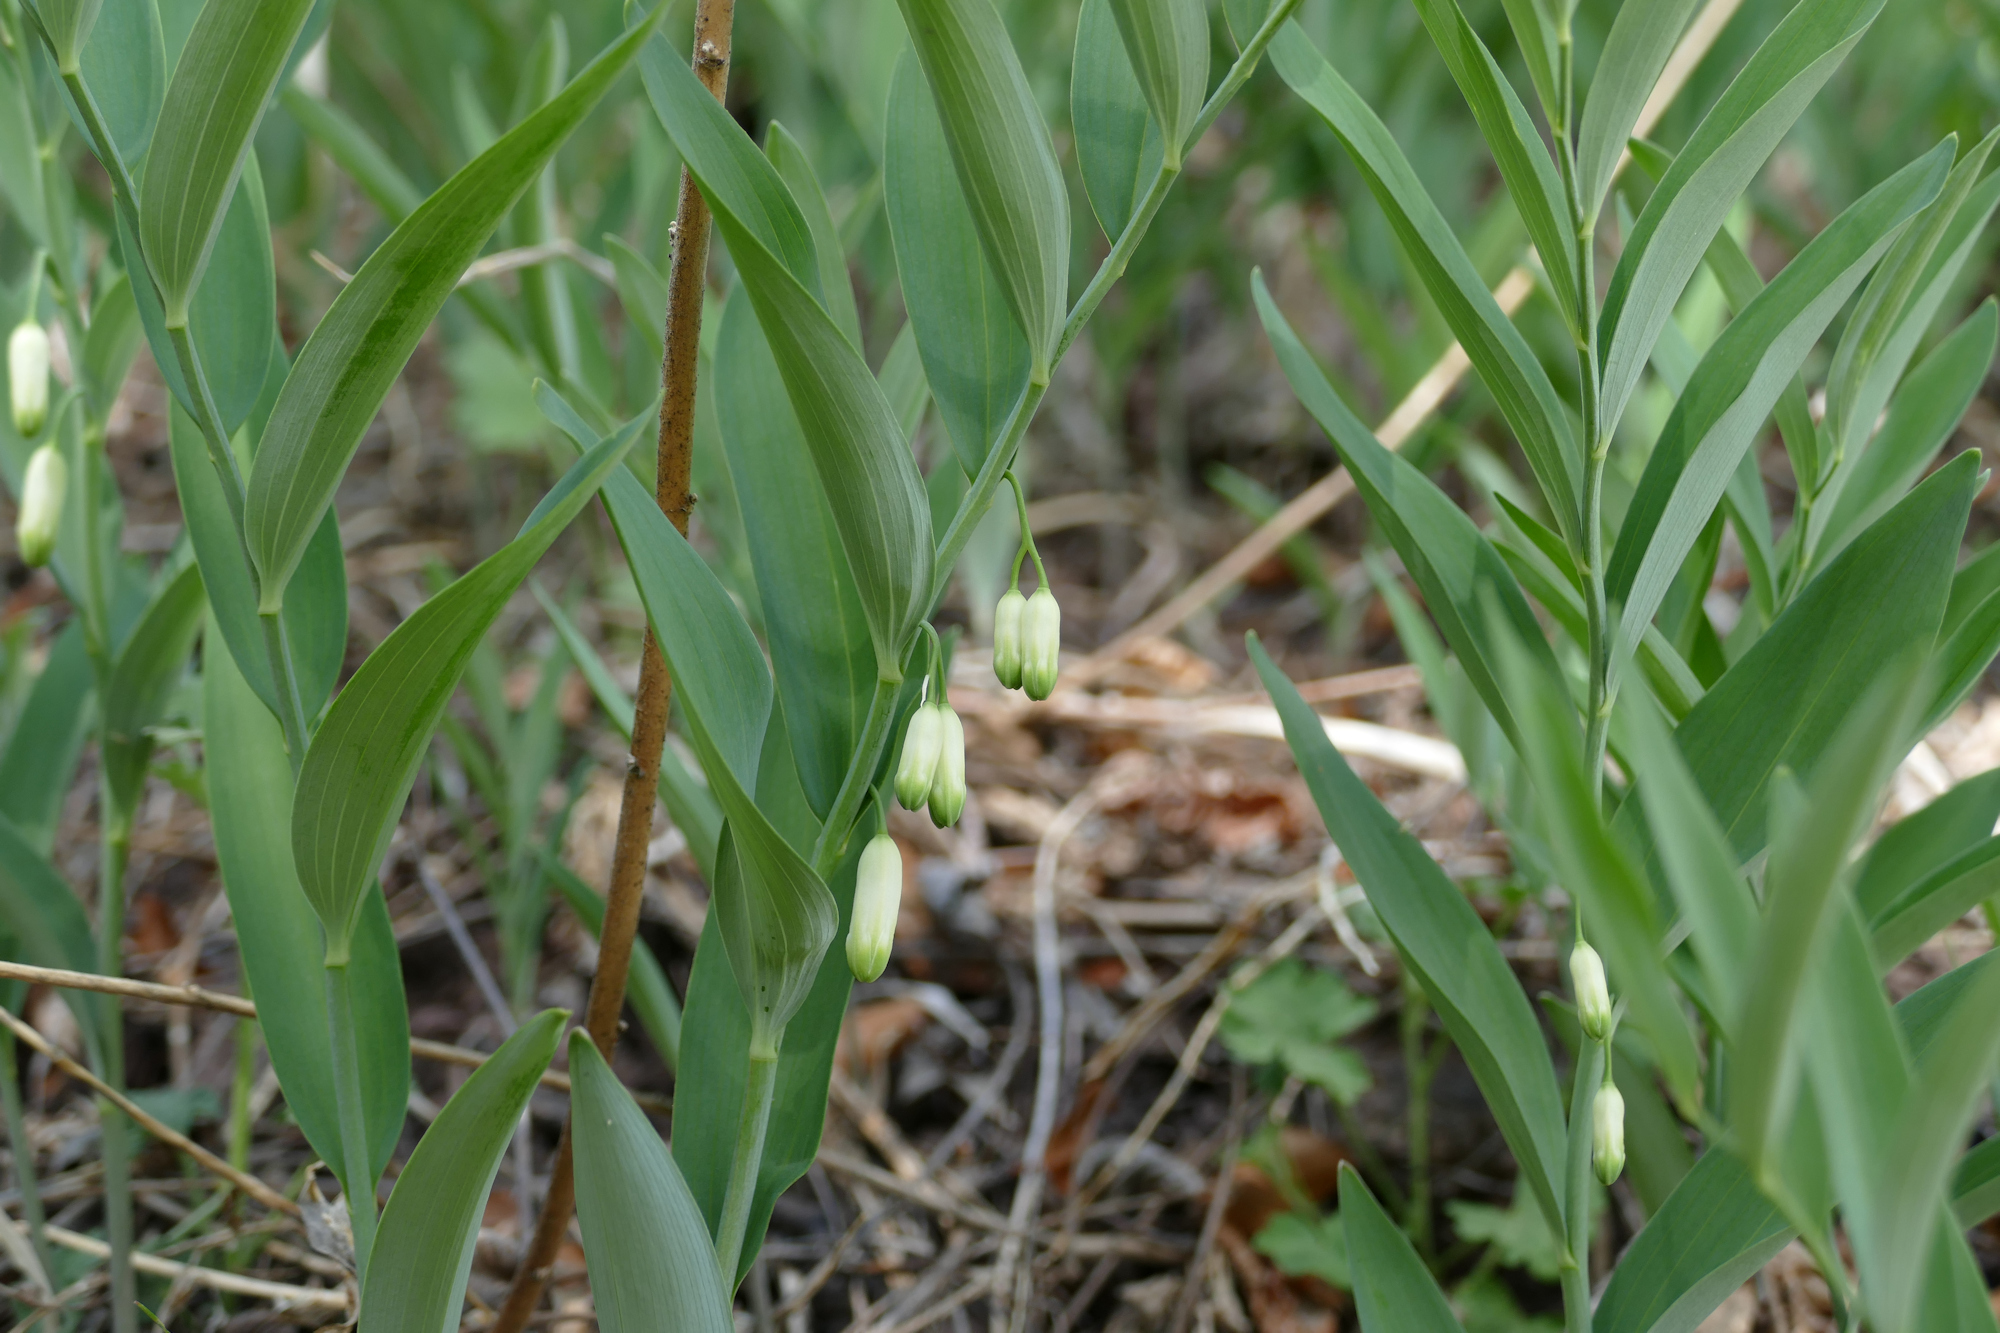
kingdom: Plantae
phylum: Tracheophyta
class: Liliopsida
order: Asparagales
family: Asparagaceae
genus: Polygonatum
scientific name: Polygonatum biflorum
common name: American solomon's-seal
